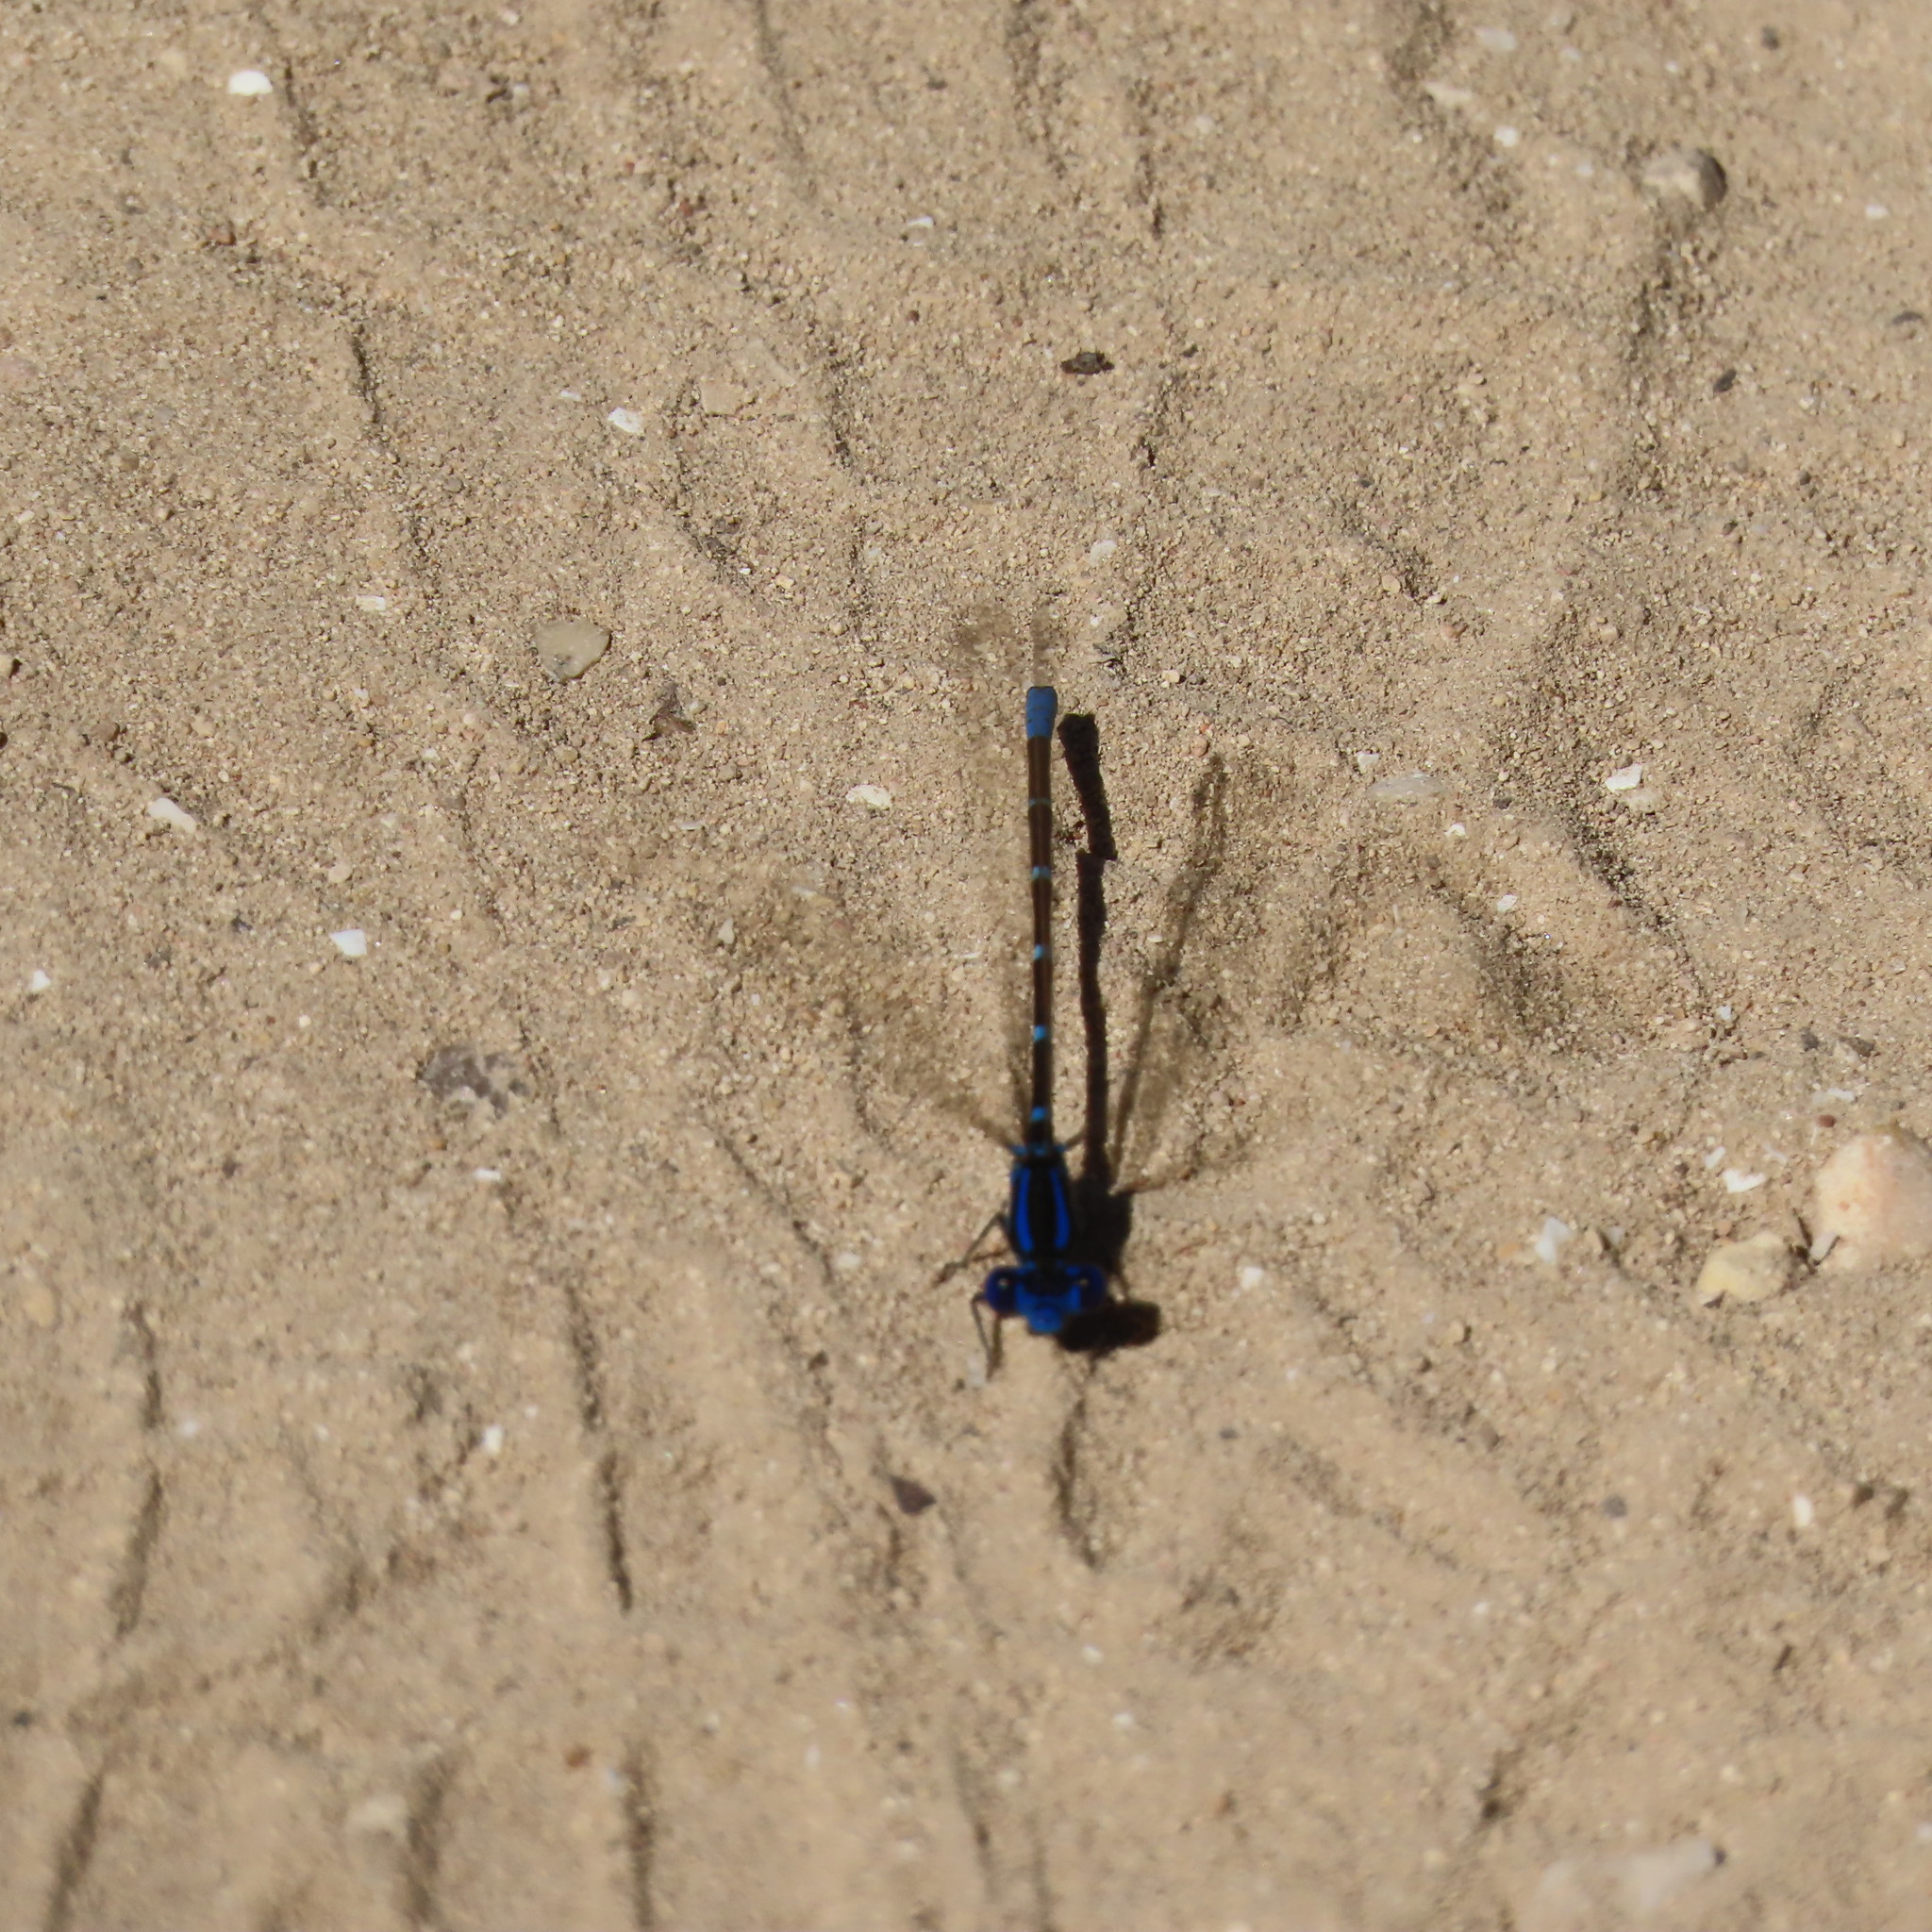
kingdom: Animalia
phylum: Arthropoda
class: Insecta
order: Odonata
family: Coenagrionidae
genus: Argia
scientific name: Argia sedula
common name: Blue-ringed dancer
